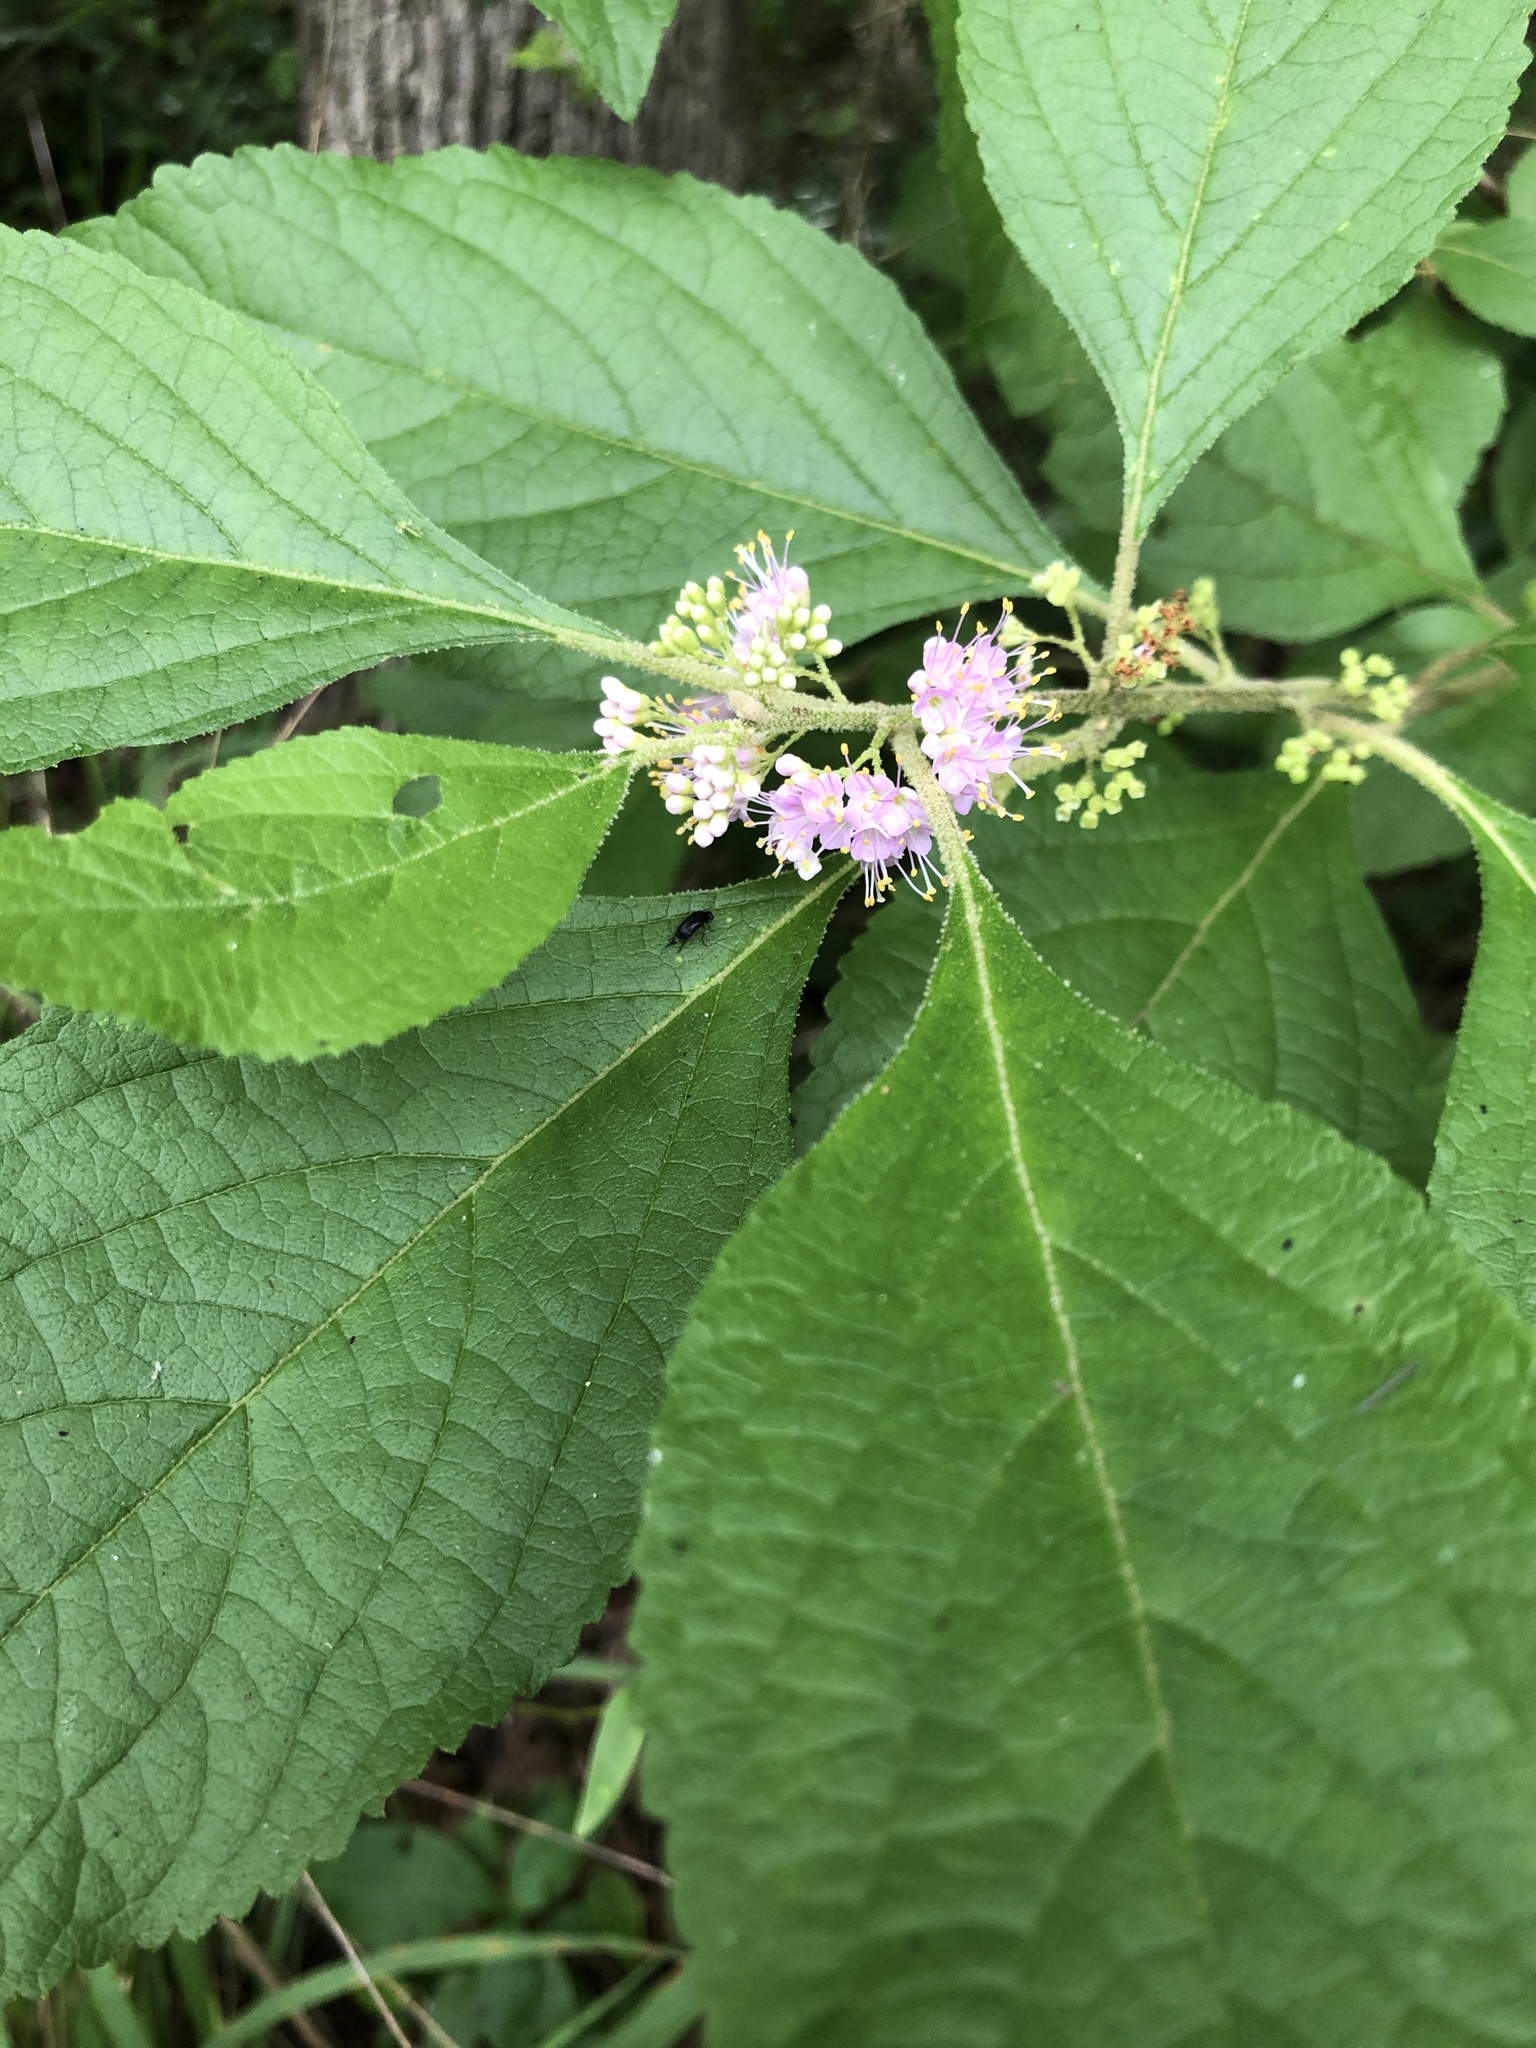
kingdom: Plantae
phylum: Tracheophyta
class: Magnoliopsida
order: Lamiales
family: Lamiaceae
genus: Callicarpa
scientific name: Callicarpa americana
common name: American beautyberry
